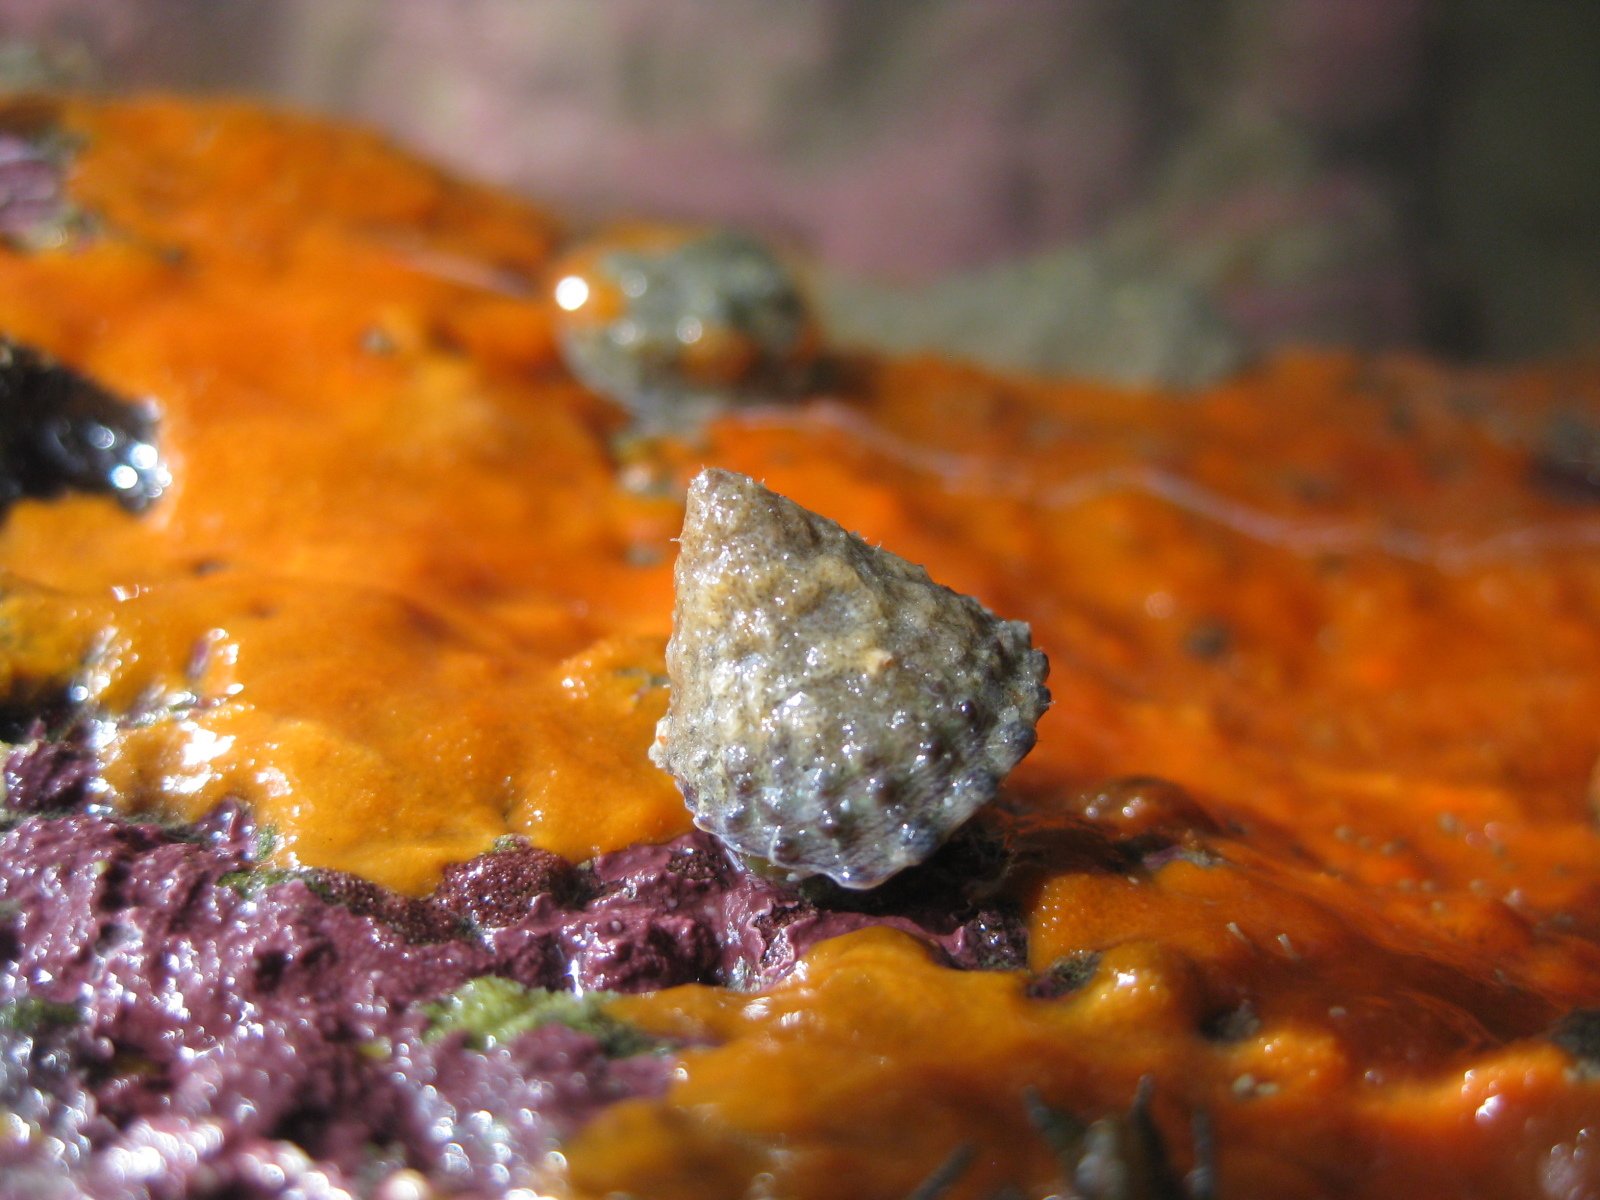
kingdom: Animalia
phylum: Mollusca
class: Gastropoda
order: Trochida
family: Trochidae
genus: Coelotrochus
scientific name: Coelotrochus viridis
